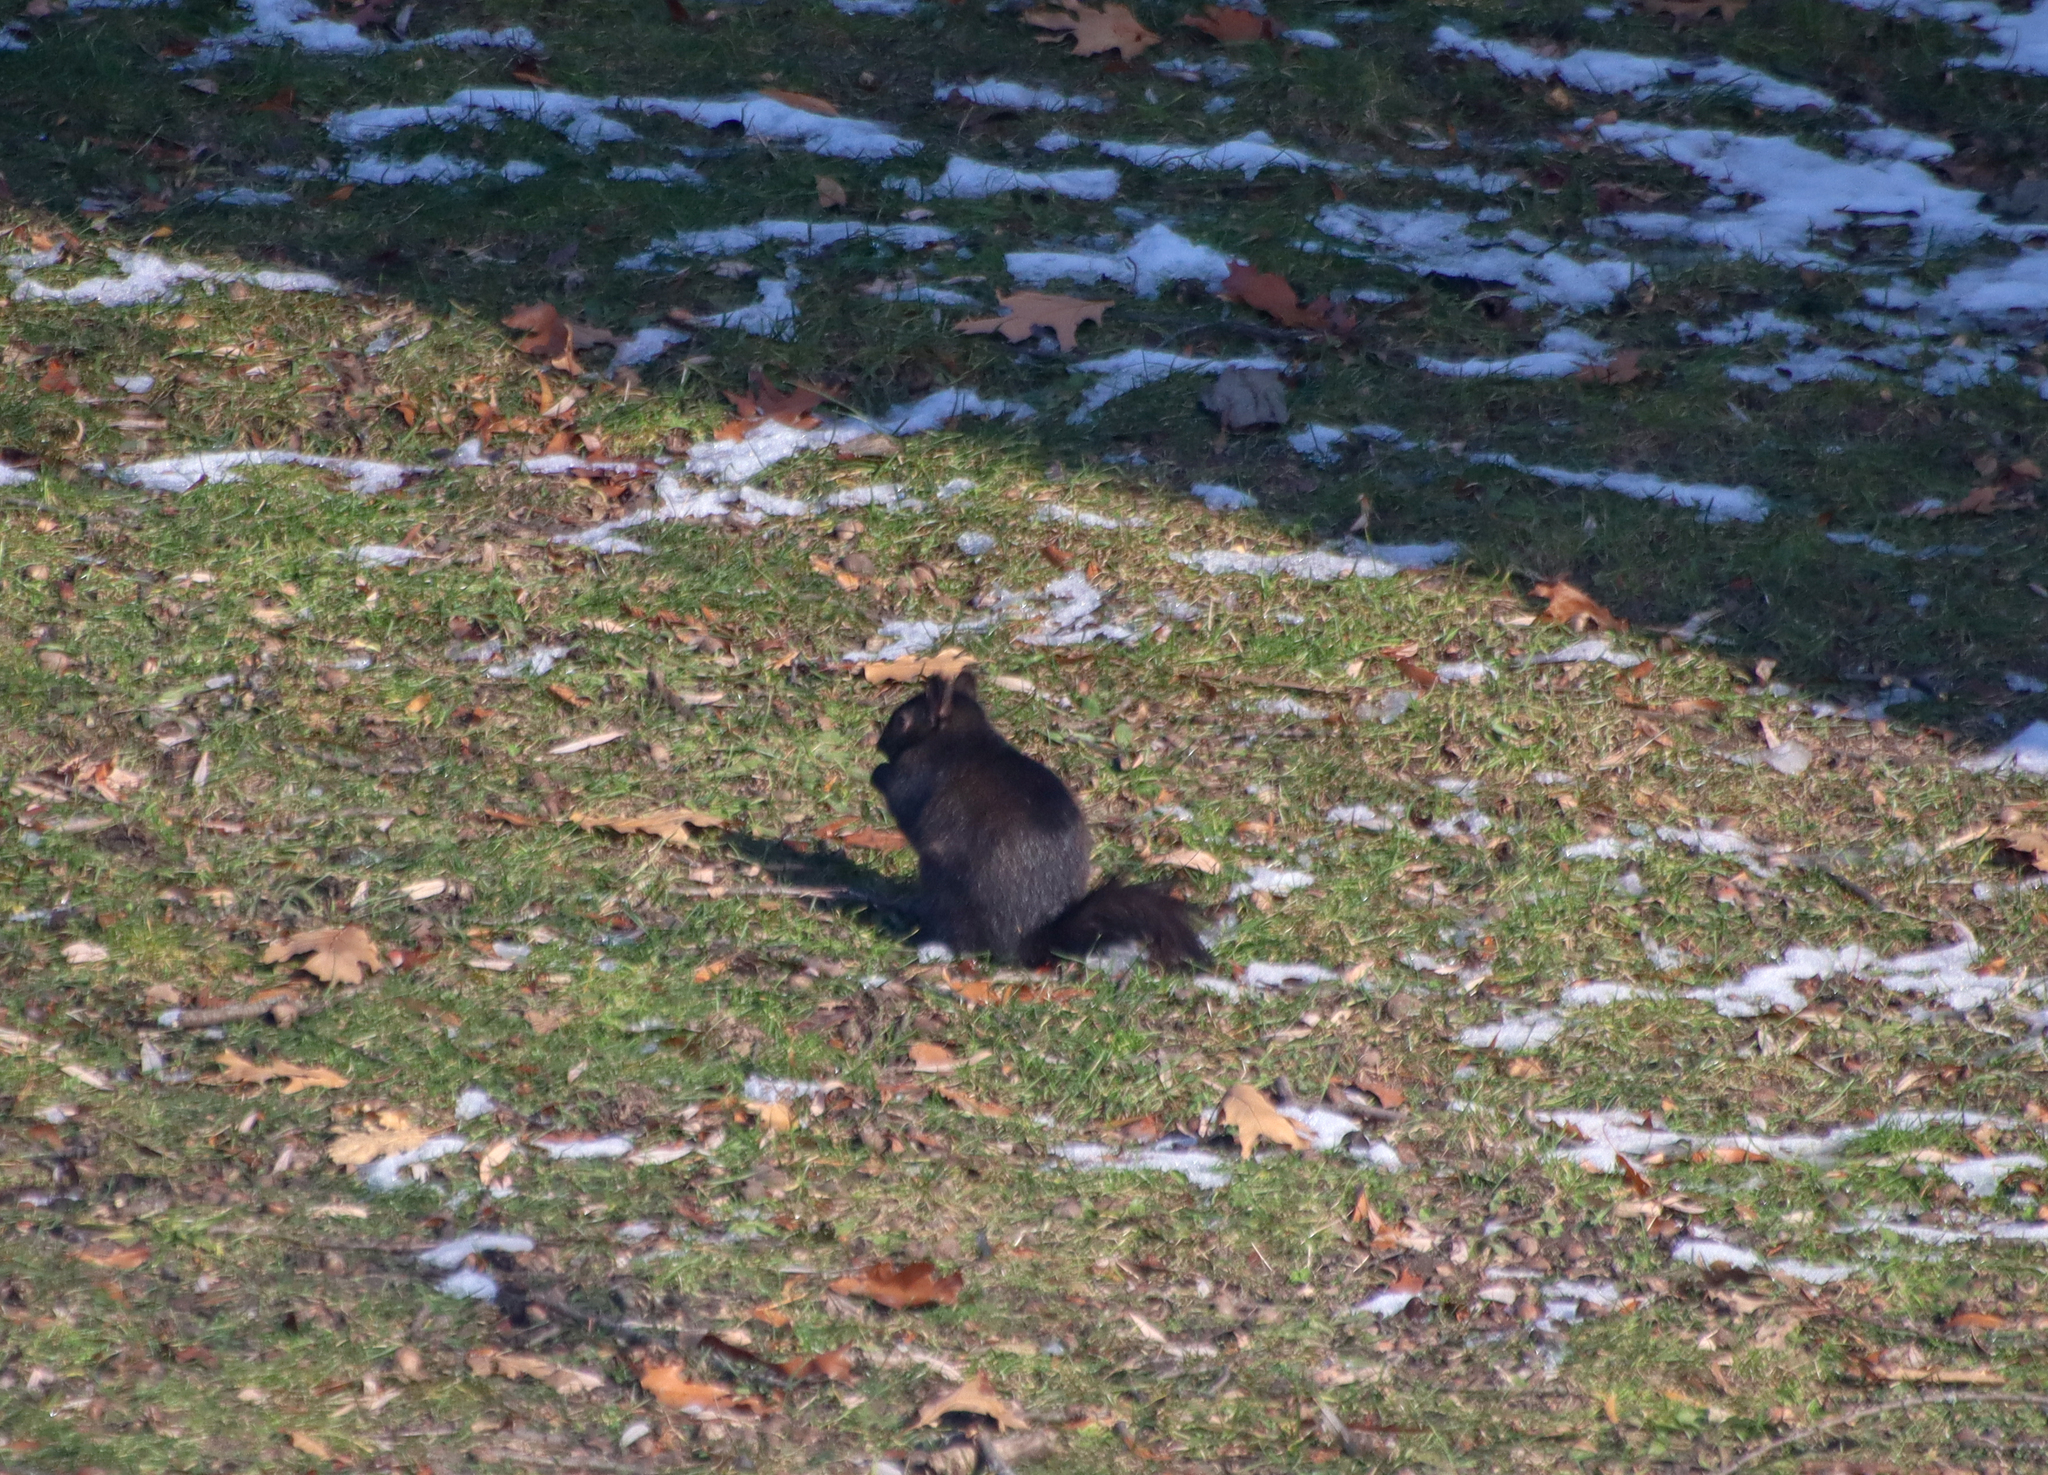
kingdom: Animalia
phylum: Chordata
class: Mammalia
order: Rodentia
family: Sciuridae
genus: Sciurus
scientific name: Sciurus carolinensis
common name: Eastern gray squirrel
